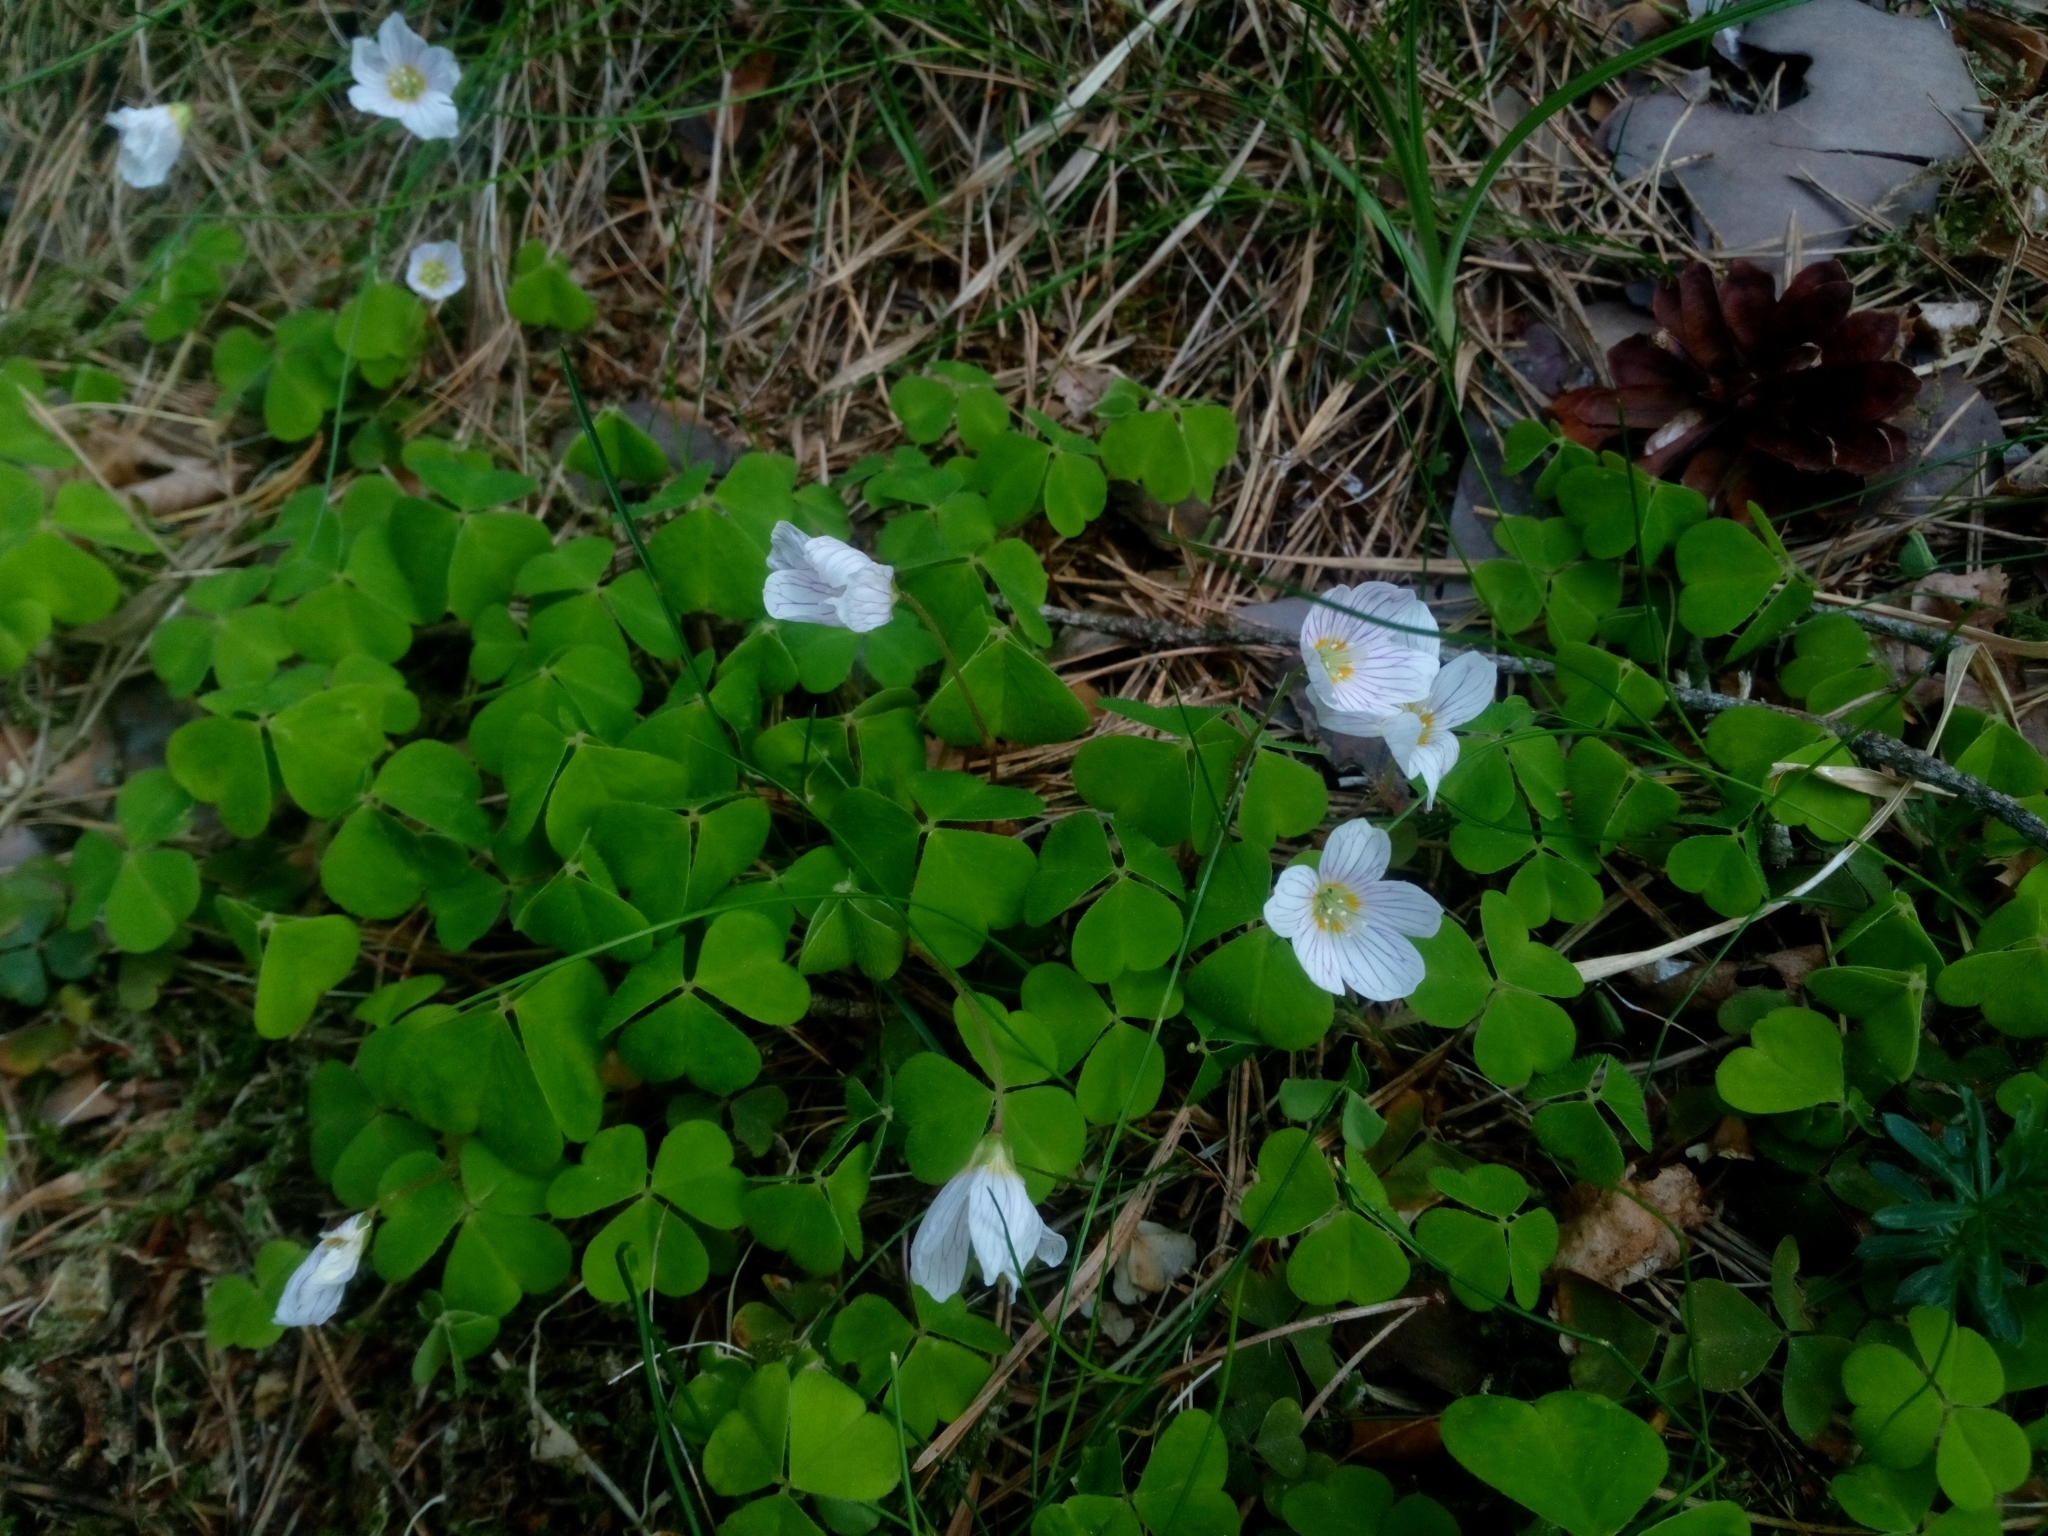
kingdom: Plantae
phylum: Tracheophyta
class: Magnoliopsida
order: Oxalidales
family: Oxalidaceae
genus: Oxalis
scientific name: Oxalis acetosella
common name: Wood-sorrel
